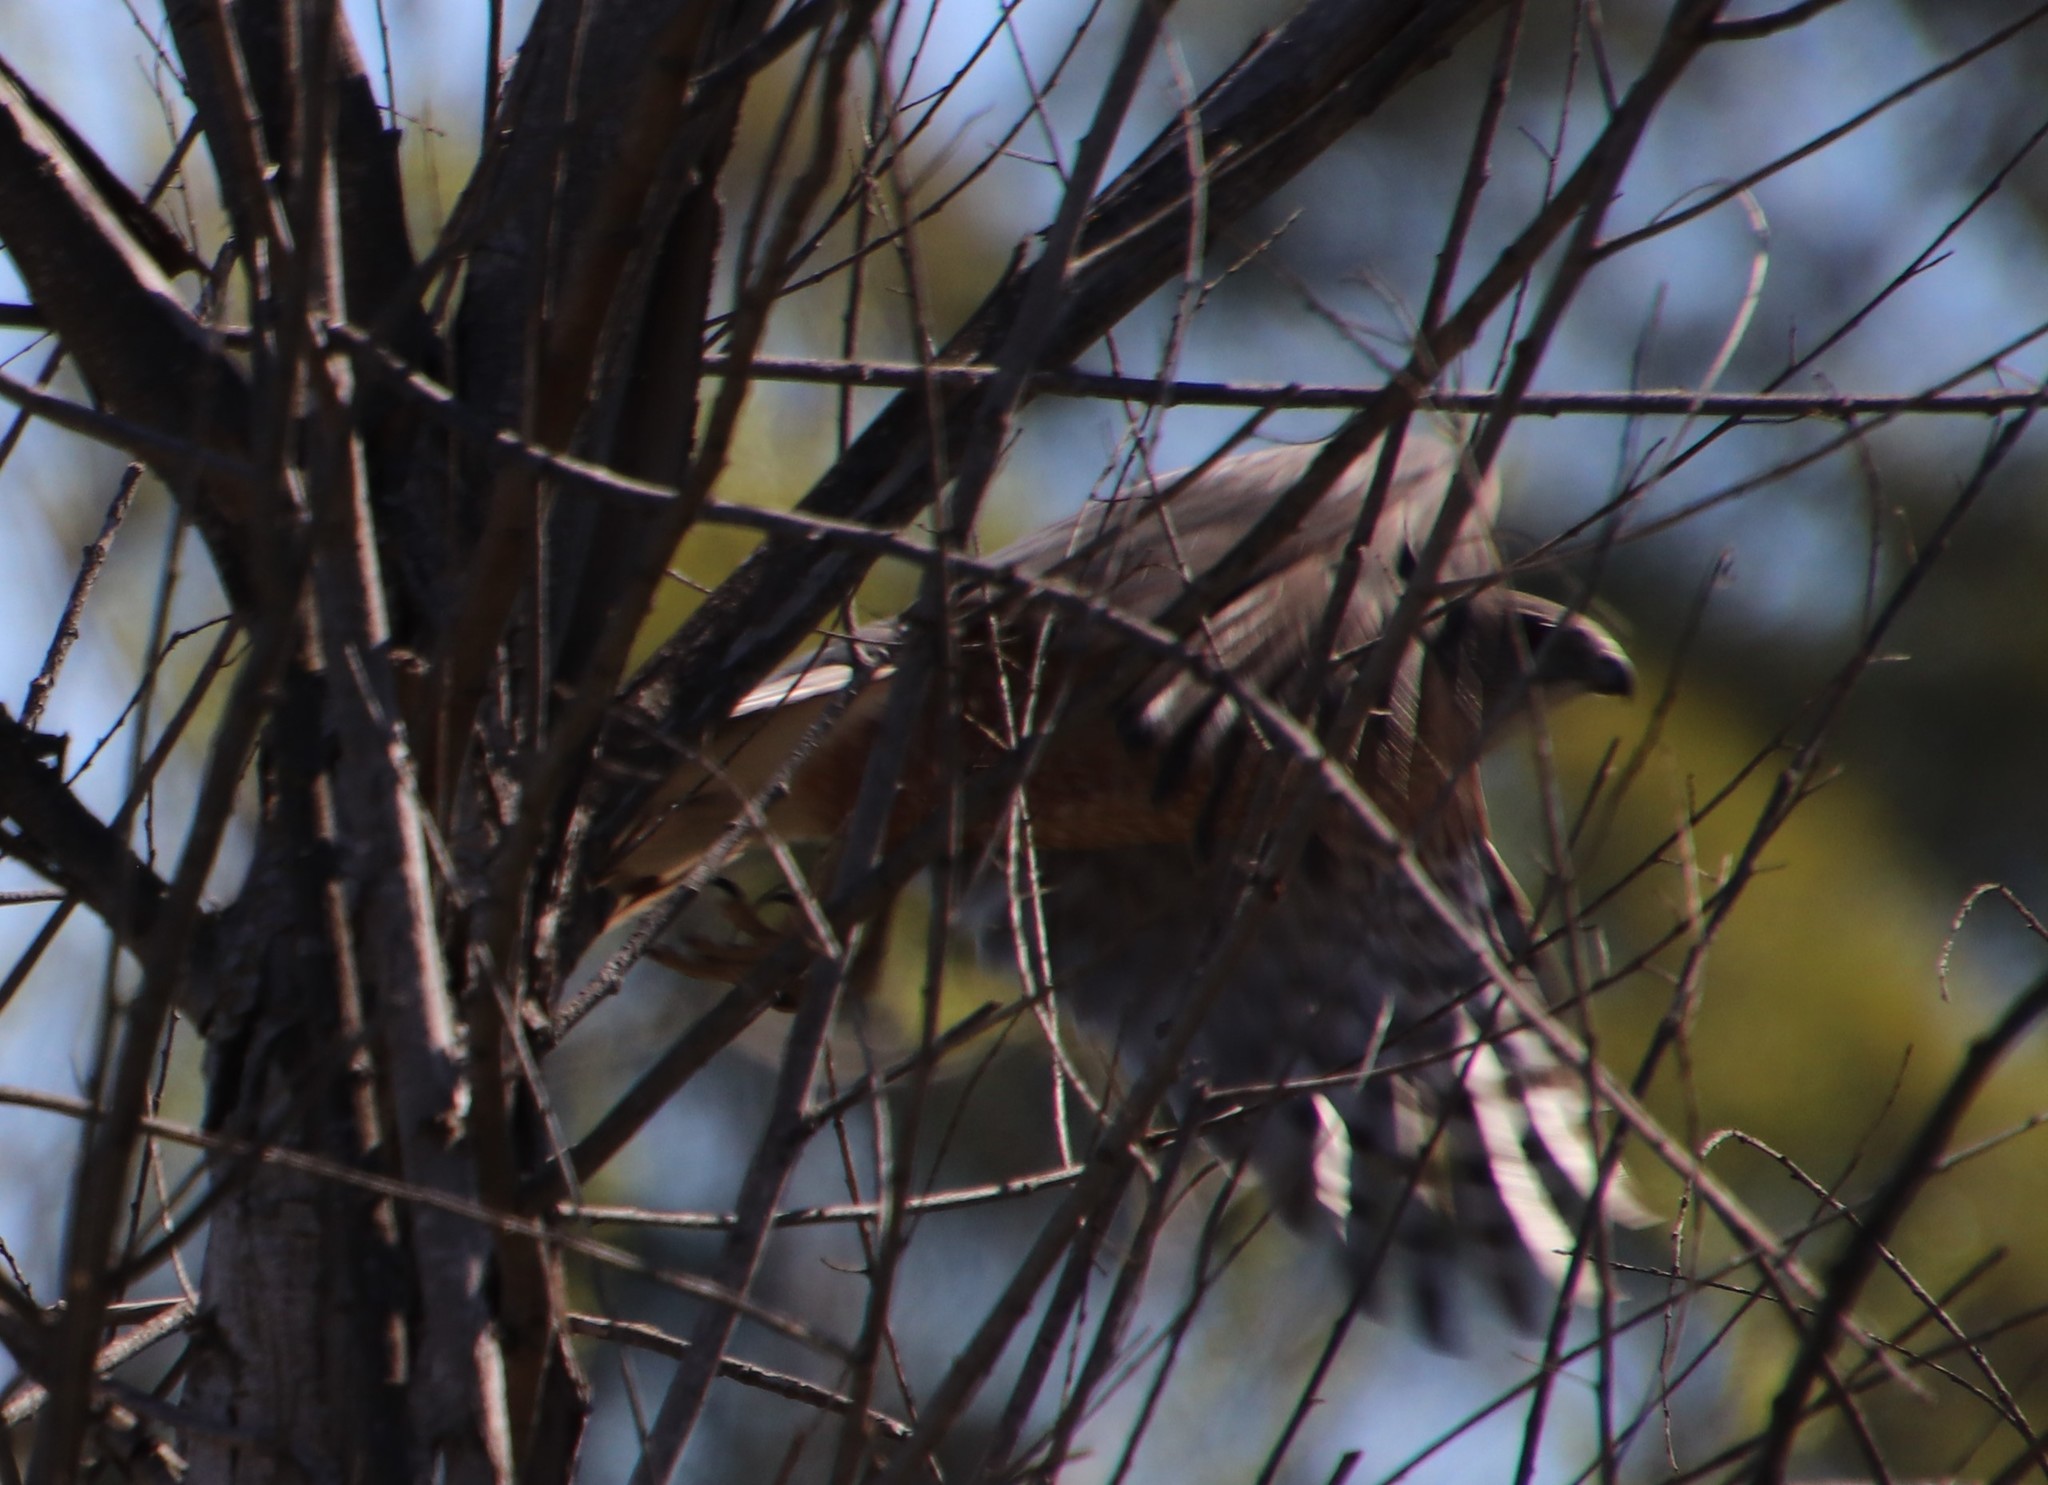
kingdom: Animalia
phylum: Chordata
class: Aves
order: Accipitriformes
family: Accipitridae
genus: Accipiter
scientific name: Accipiter cooperii
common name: Cooper's hawk
